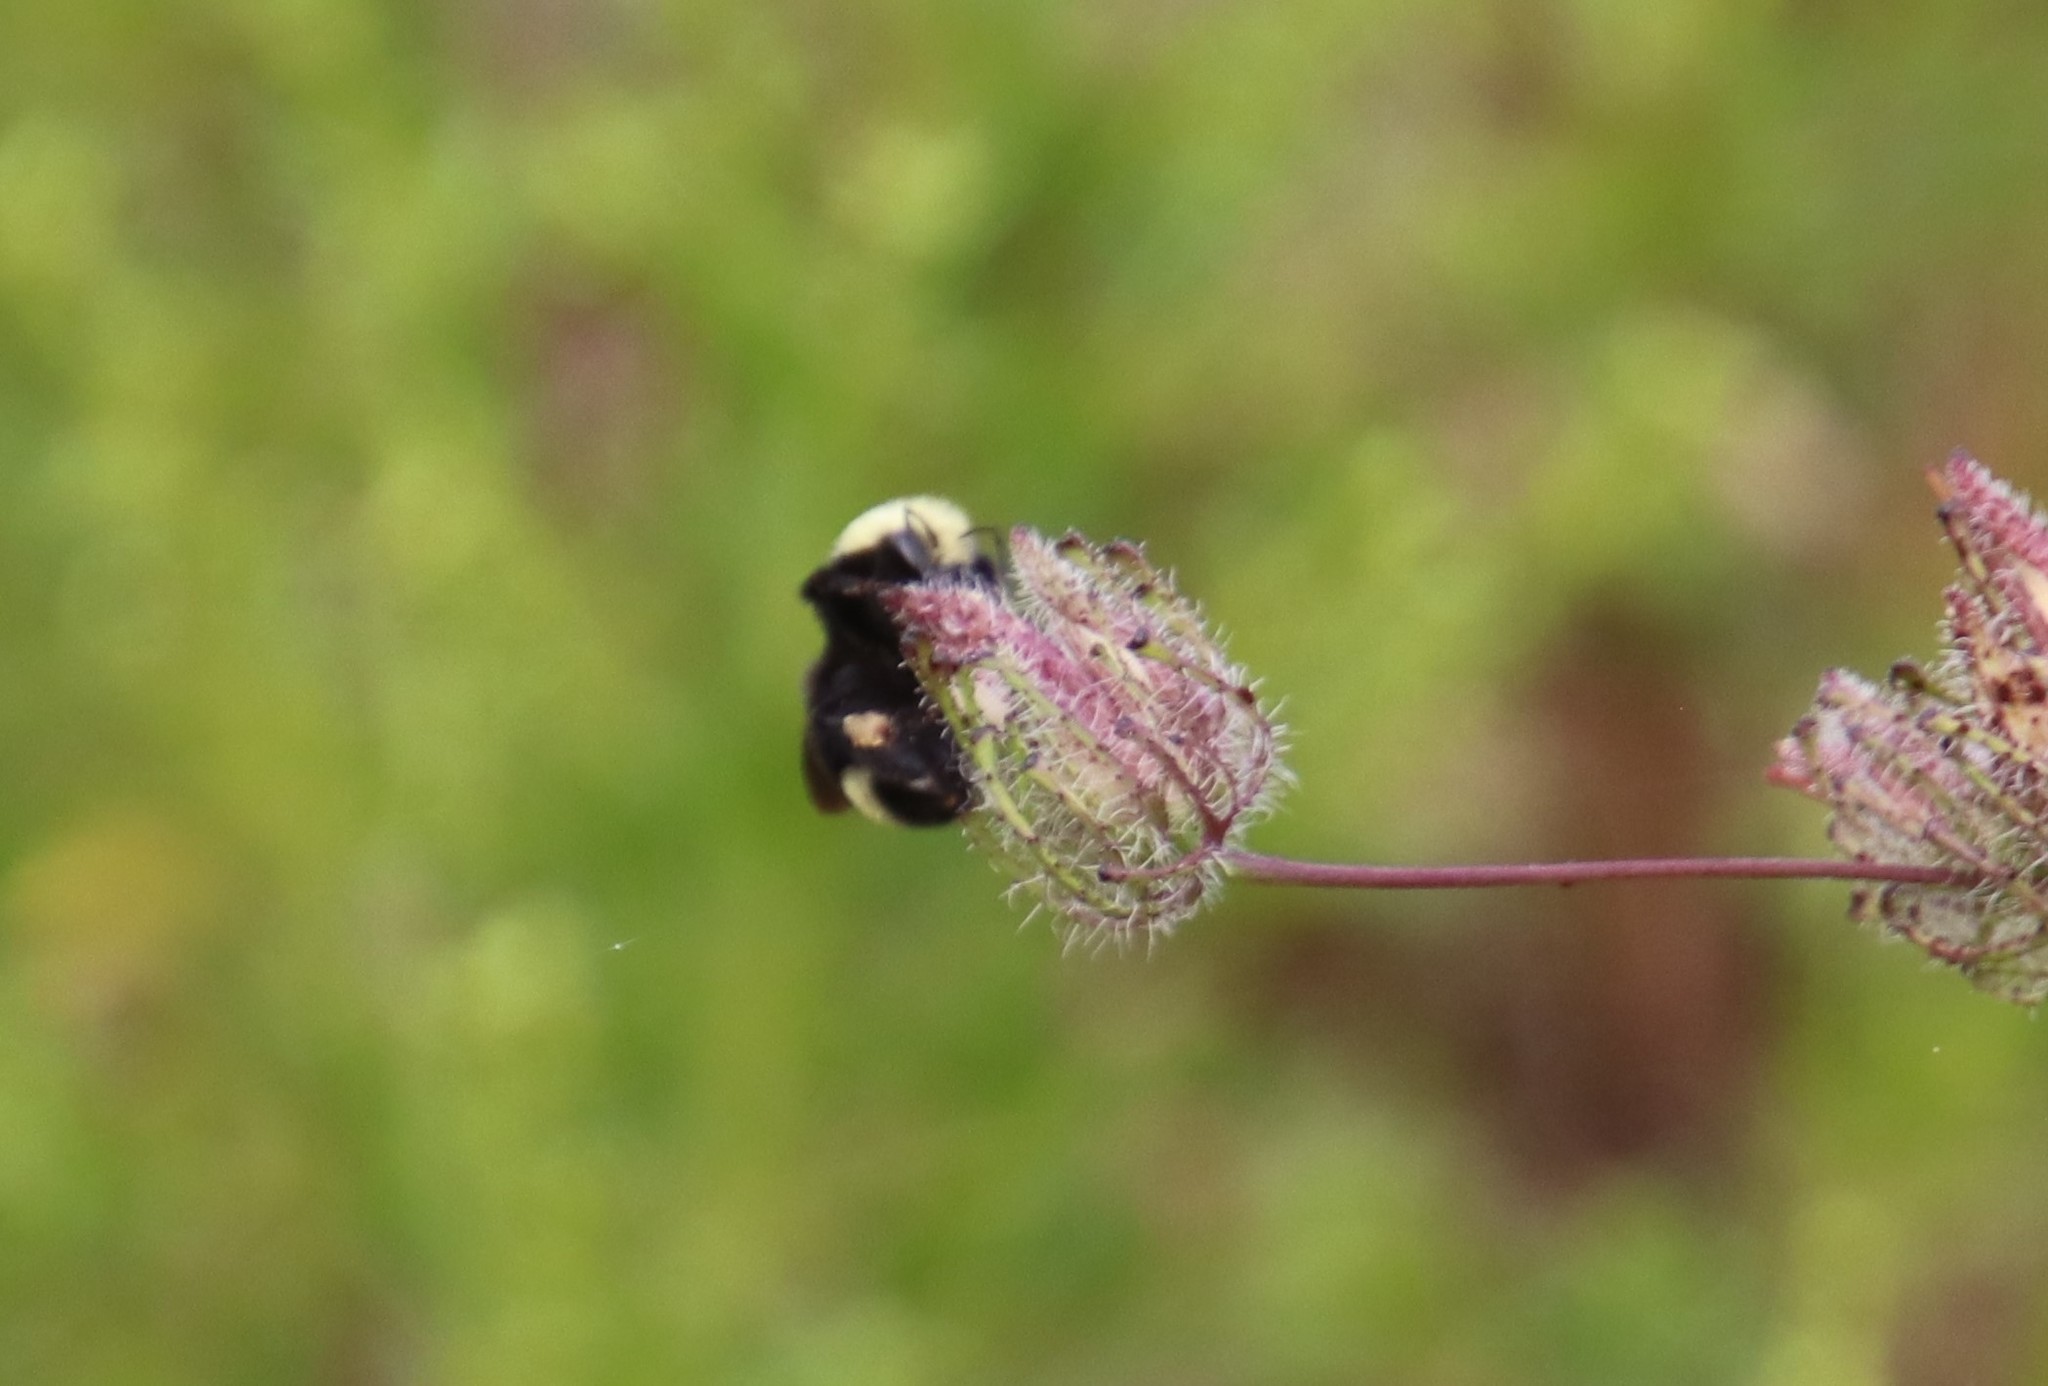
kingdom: Animalia
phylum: Arthropoda
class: Insecta
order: Hymenoptera
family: Apidae
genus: Bombus
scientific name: Bombus vosnesenskii
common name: Vosnesensky bumble bee
